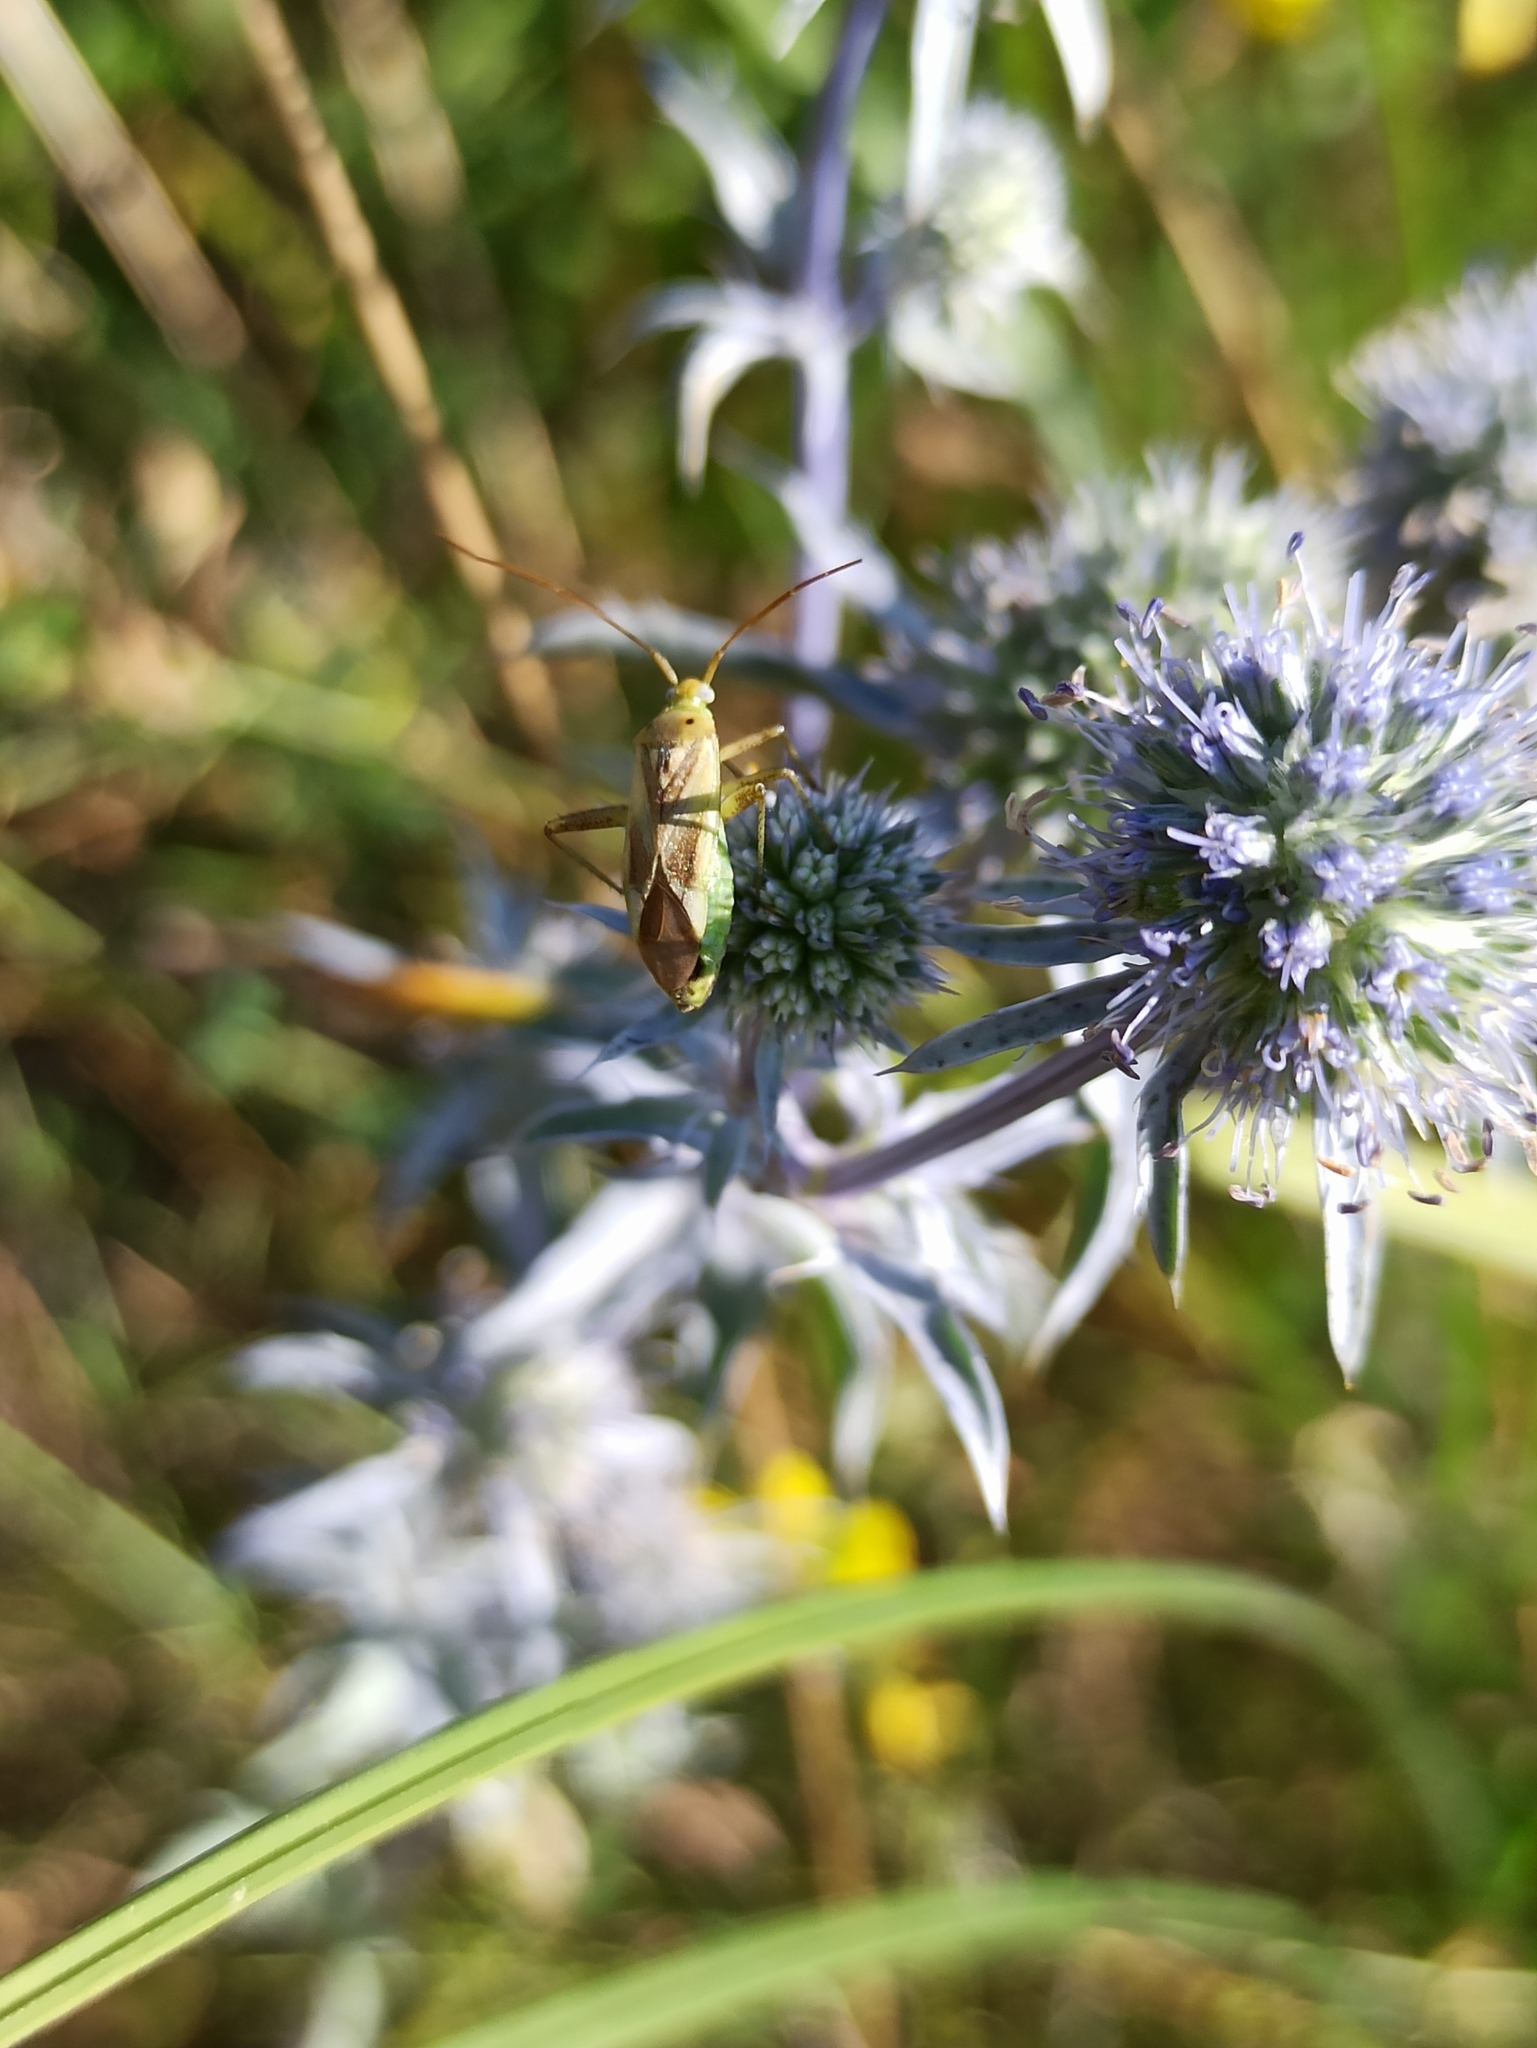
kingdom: Animalia
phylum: Arthropoda
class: Insecta
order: Hemiptera
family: Miridae
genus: Adelphocoris
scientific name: Adelphocoris lineolatus
